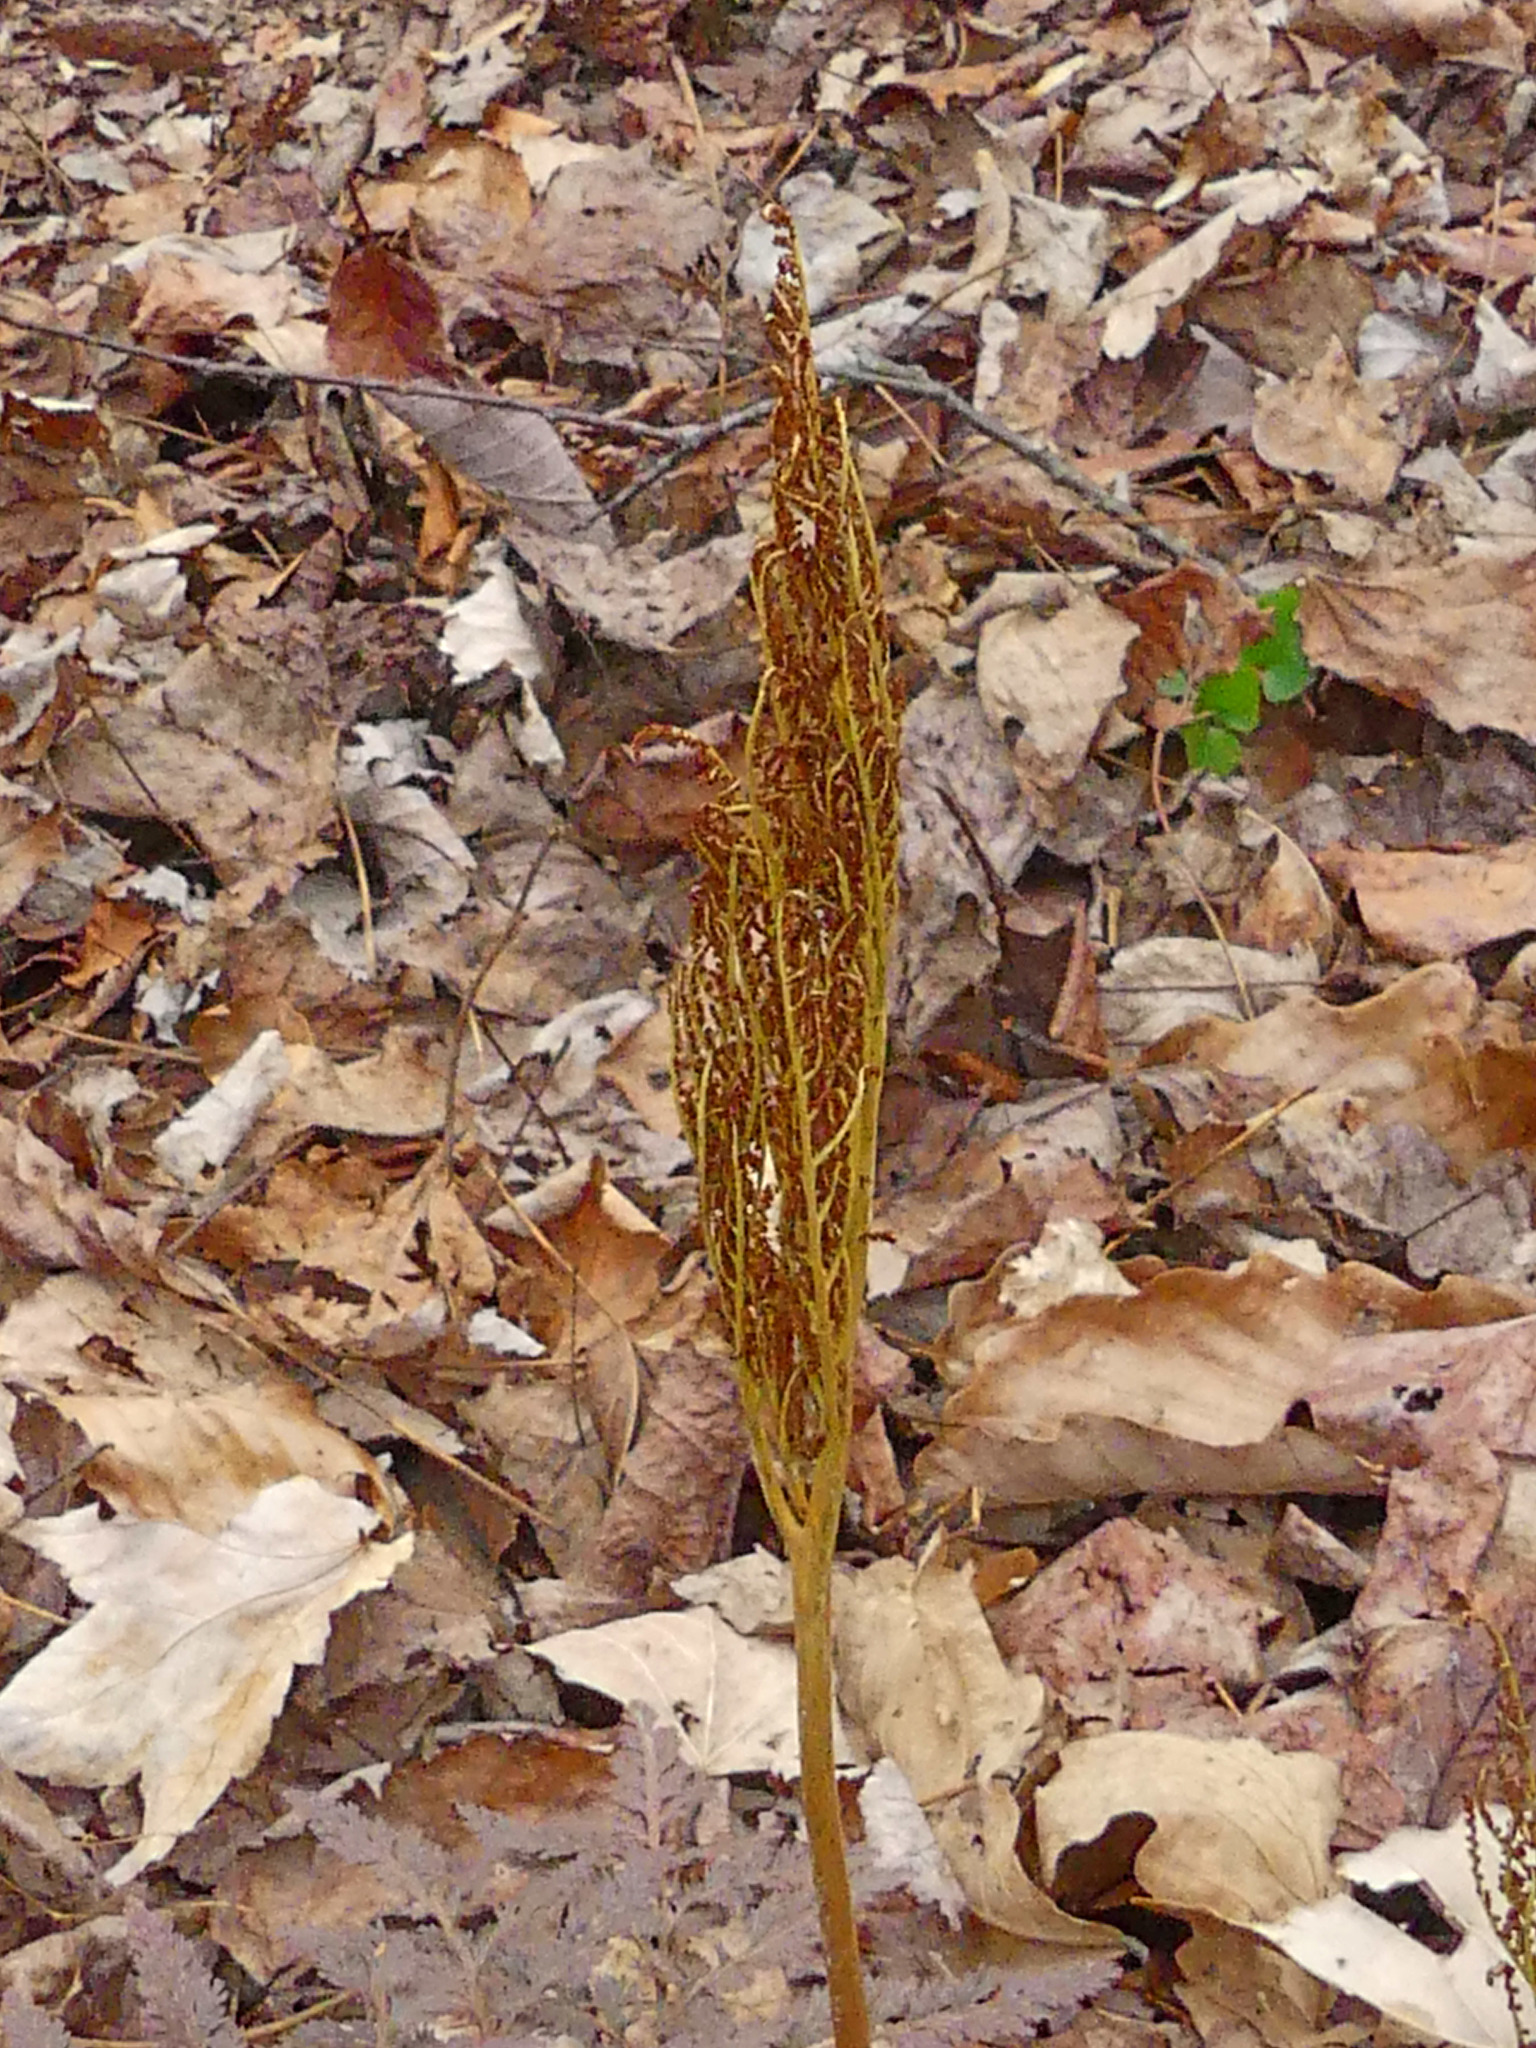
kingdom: Plantae
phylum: Tracheophyta
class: Polypodiopsida
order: Ophioglossales
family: Ophioglossaceae
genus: Sceptridium
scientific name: Sceptridium dissectum
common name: Cut-leaved grapefern
